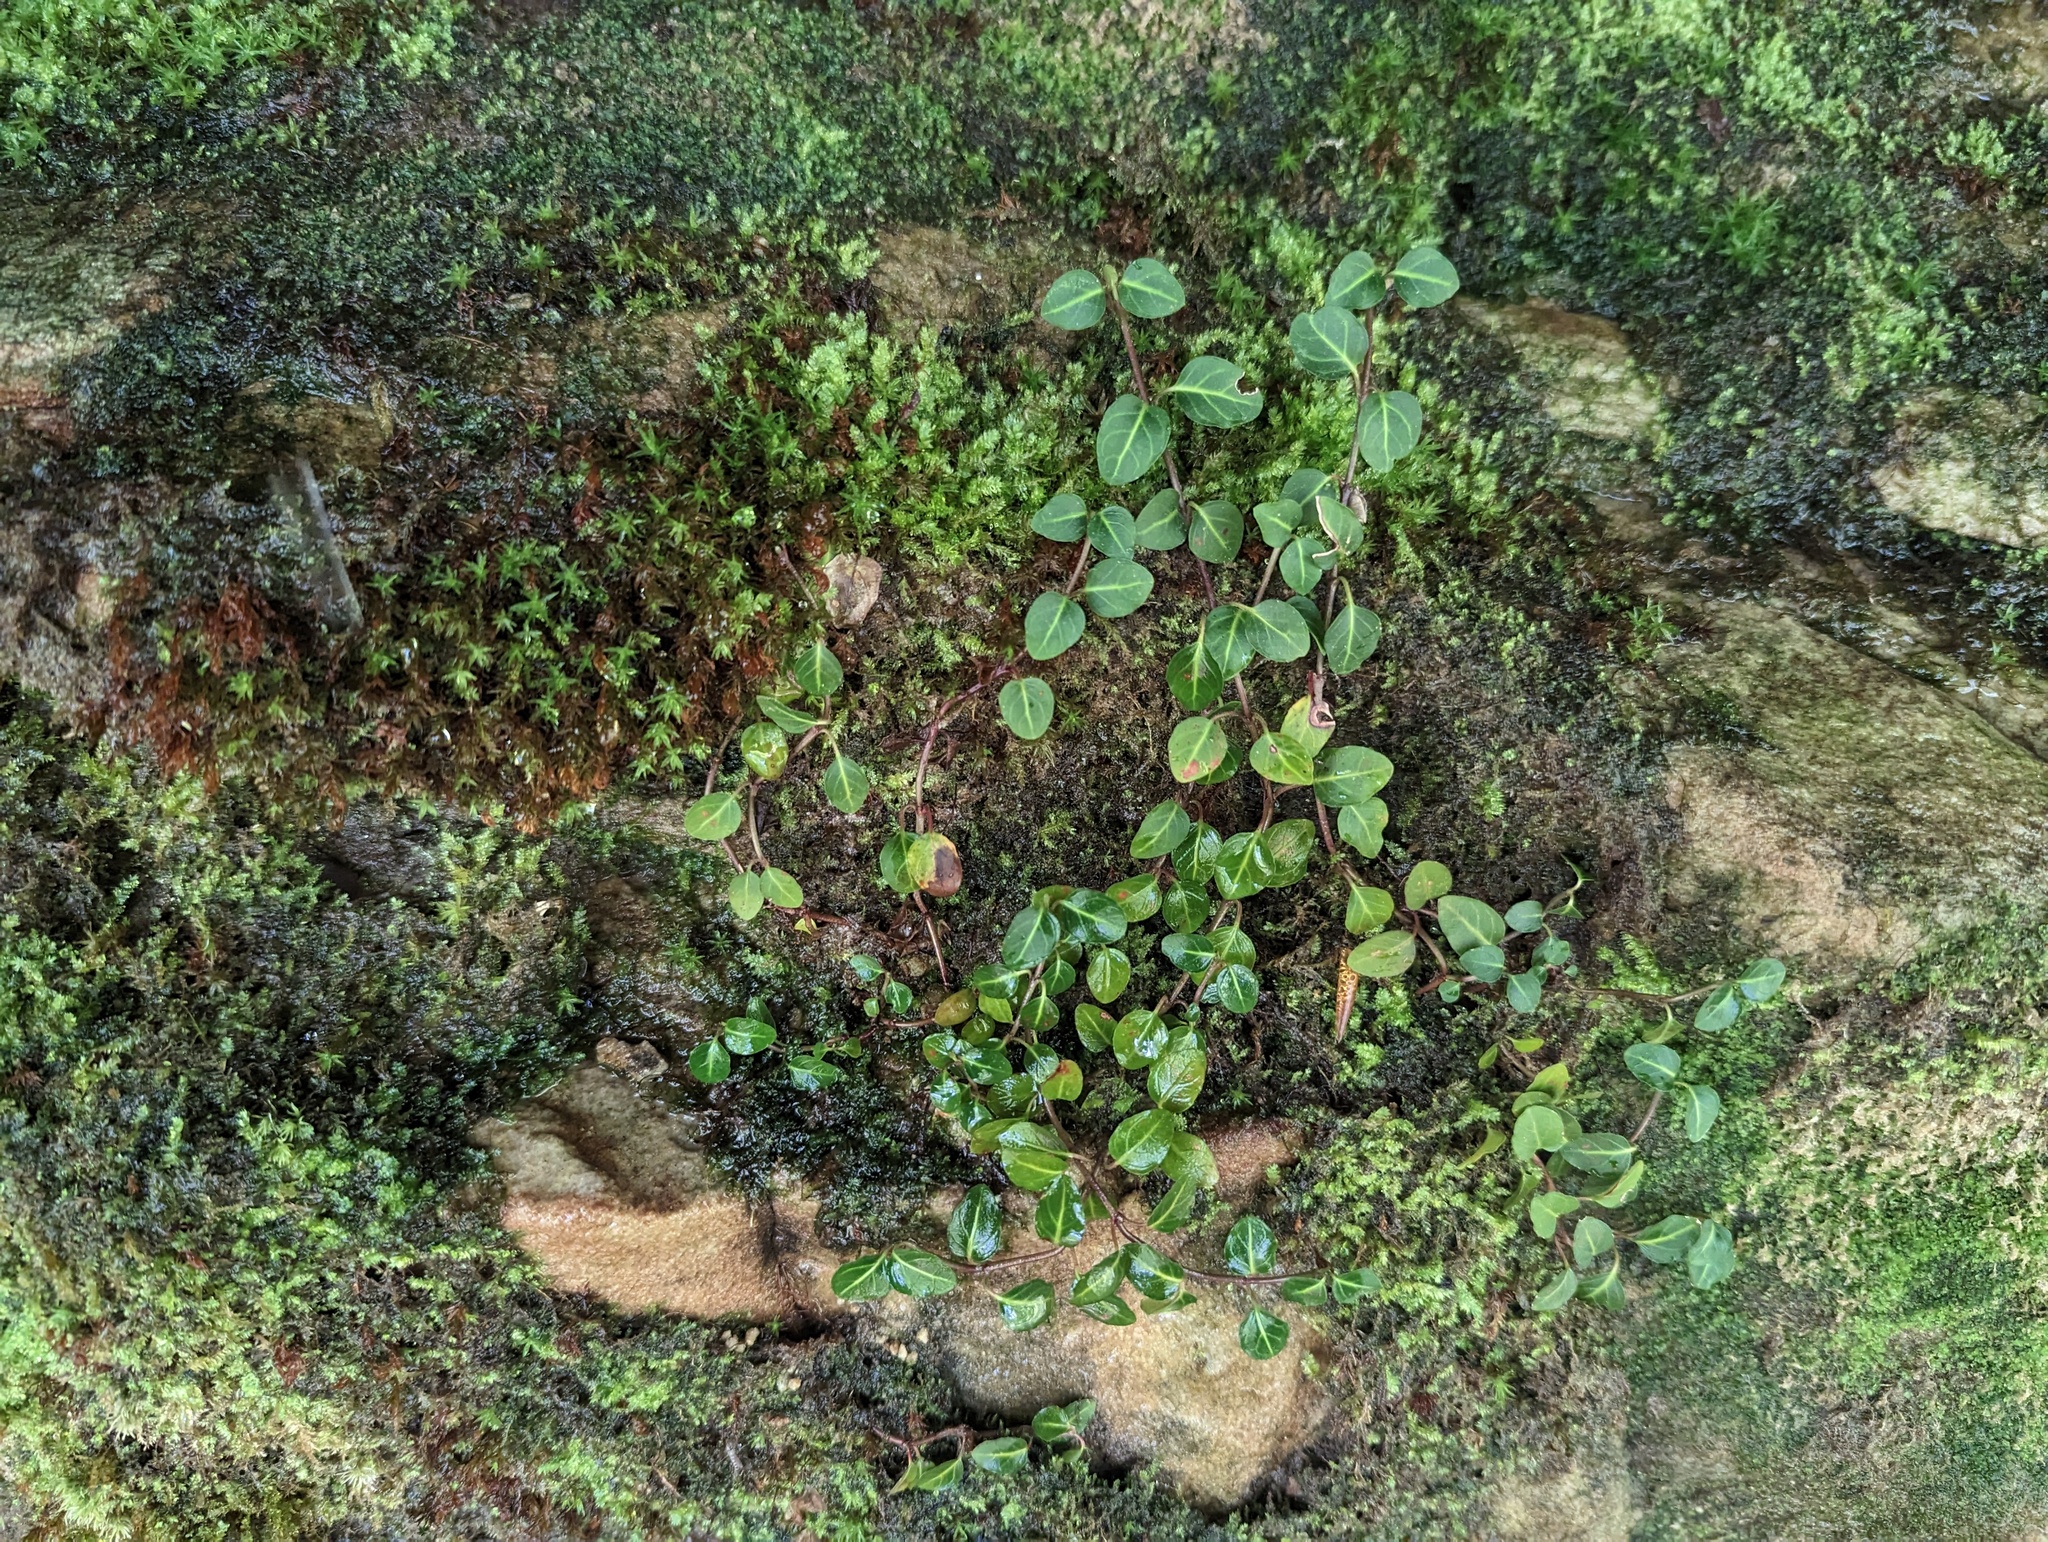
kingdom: Plantae
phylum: Tracheophyta
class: Magnoliopsida
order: Gentianales
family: Rubiaceae
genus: Mitchella
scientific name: Mitchella repens
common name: Partridge-berry
